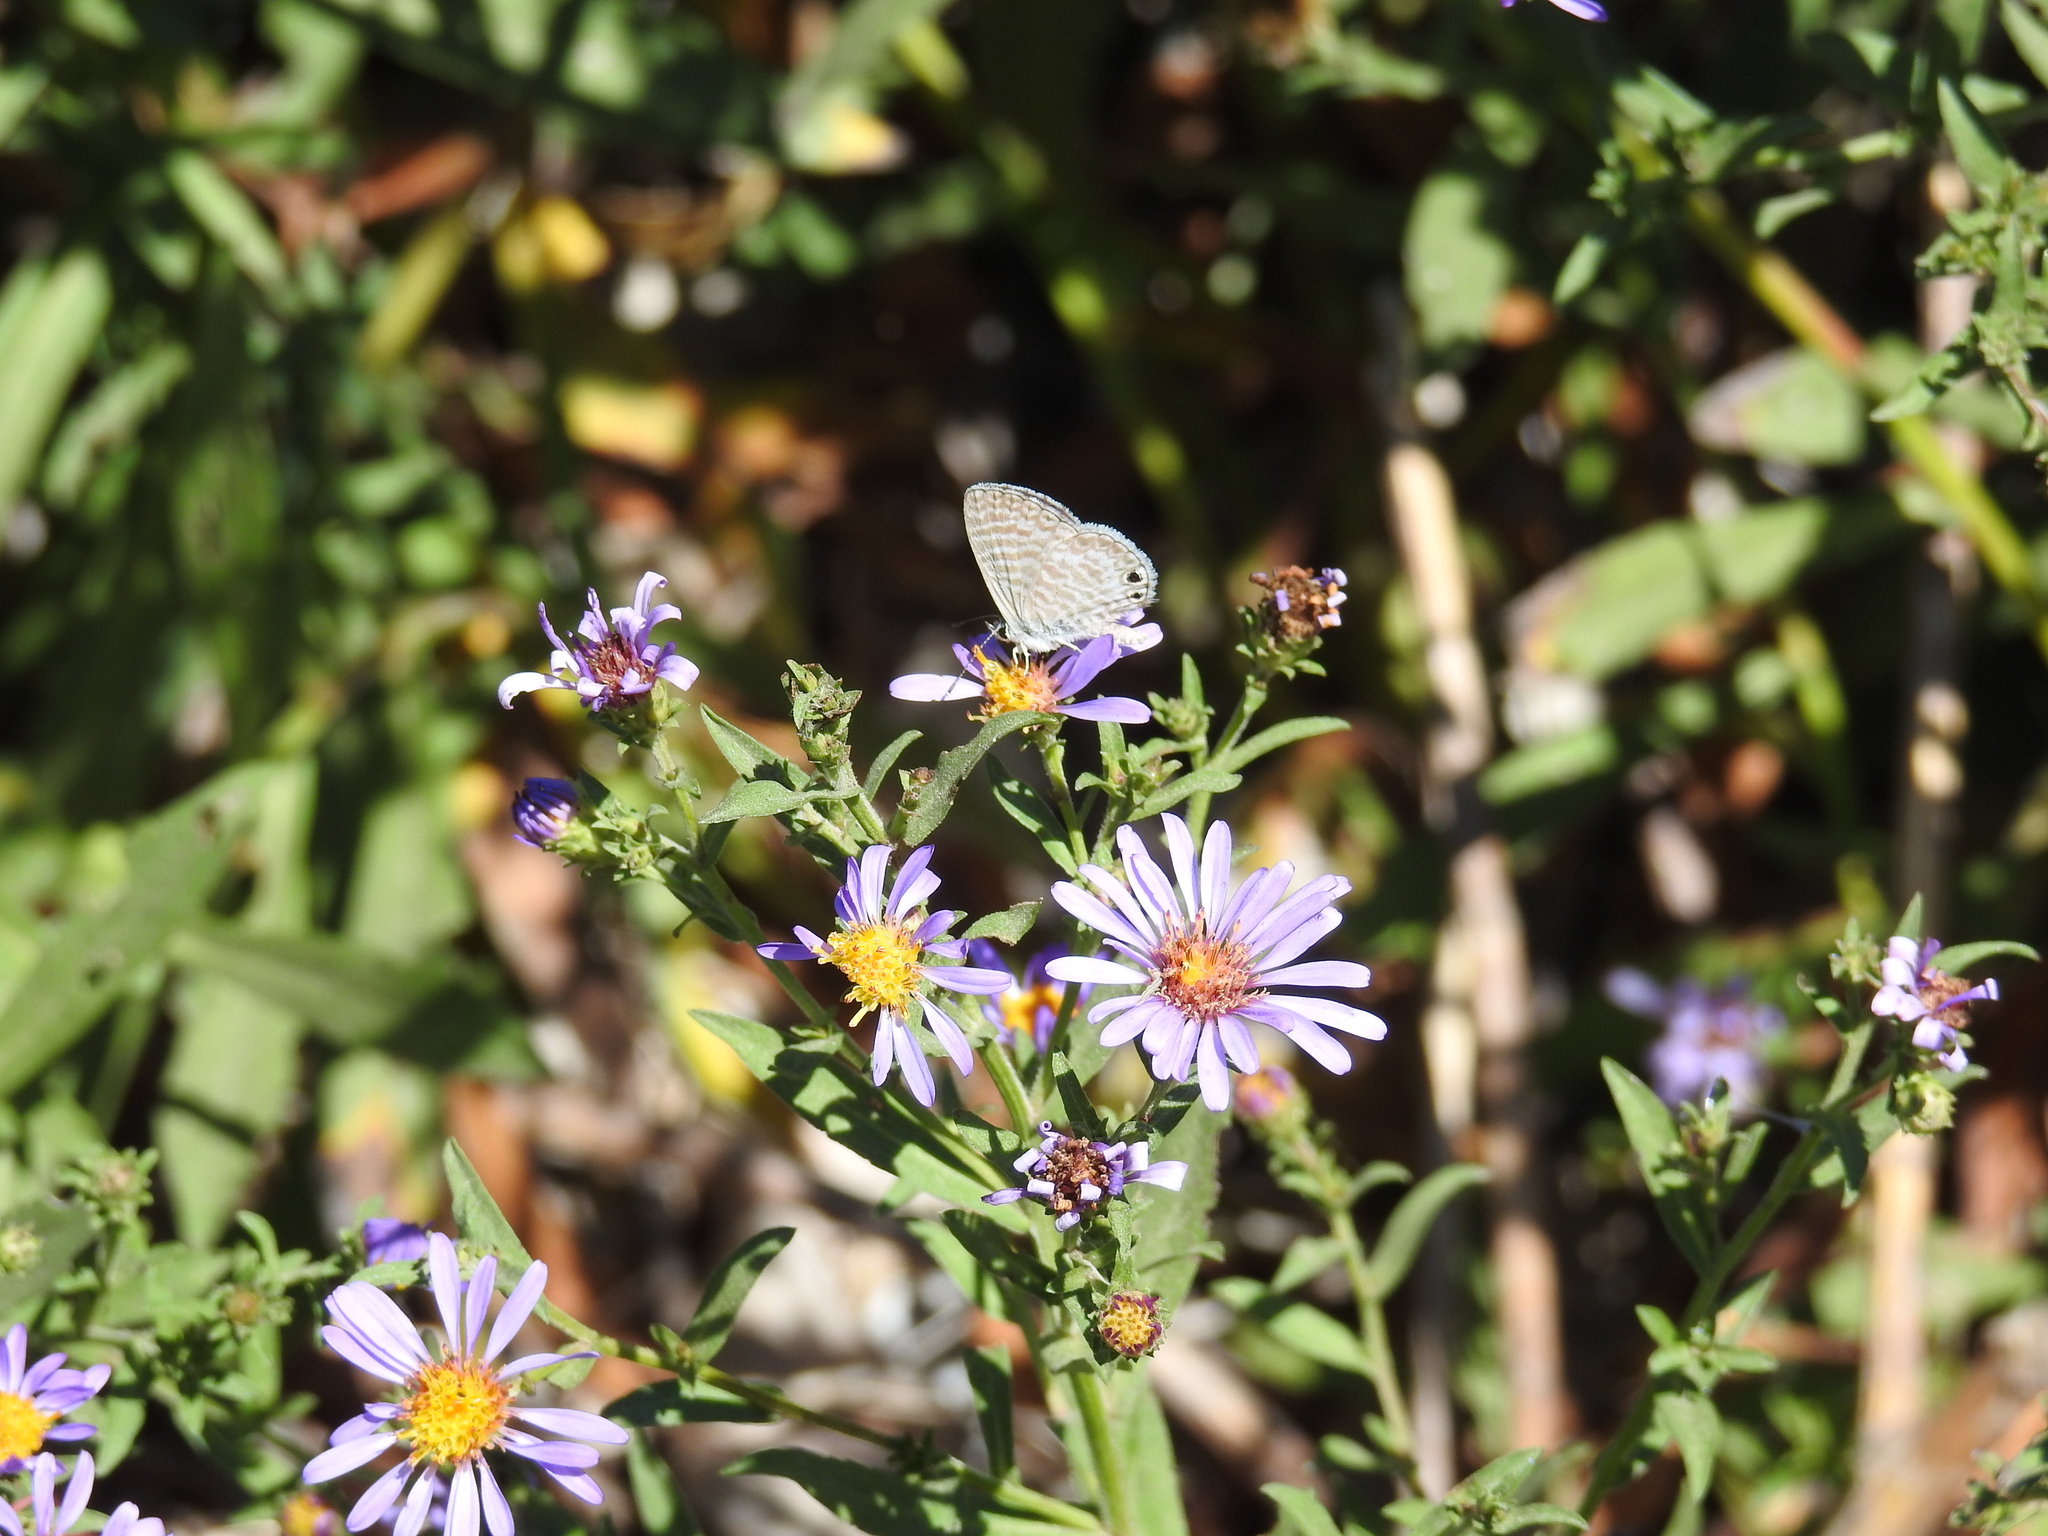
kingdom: Animalia
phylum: Arthropoda
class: Insecta
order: Lepidoptera
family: Lycaenidae
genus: Leptotes
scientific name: Leptotes marina
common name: Marine blue
